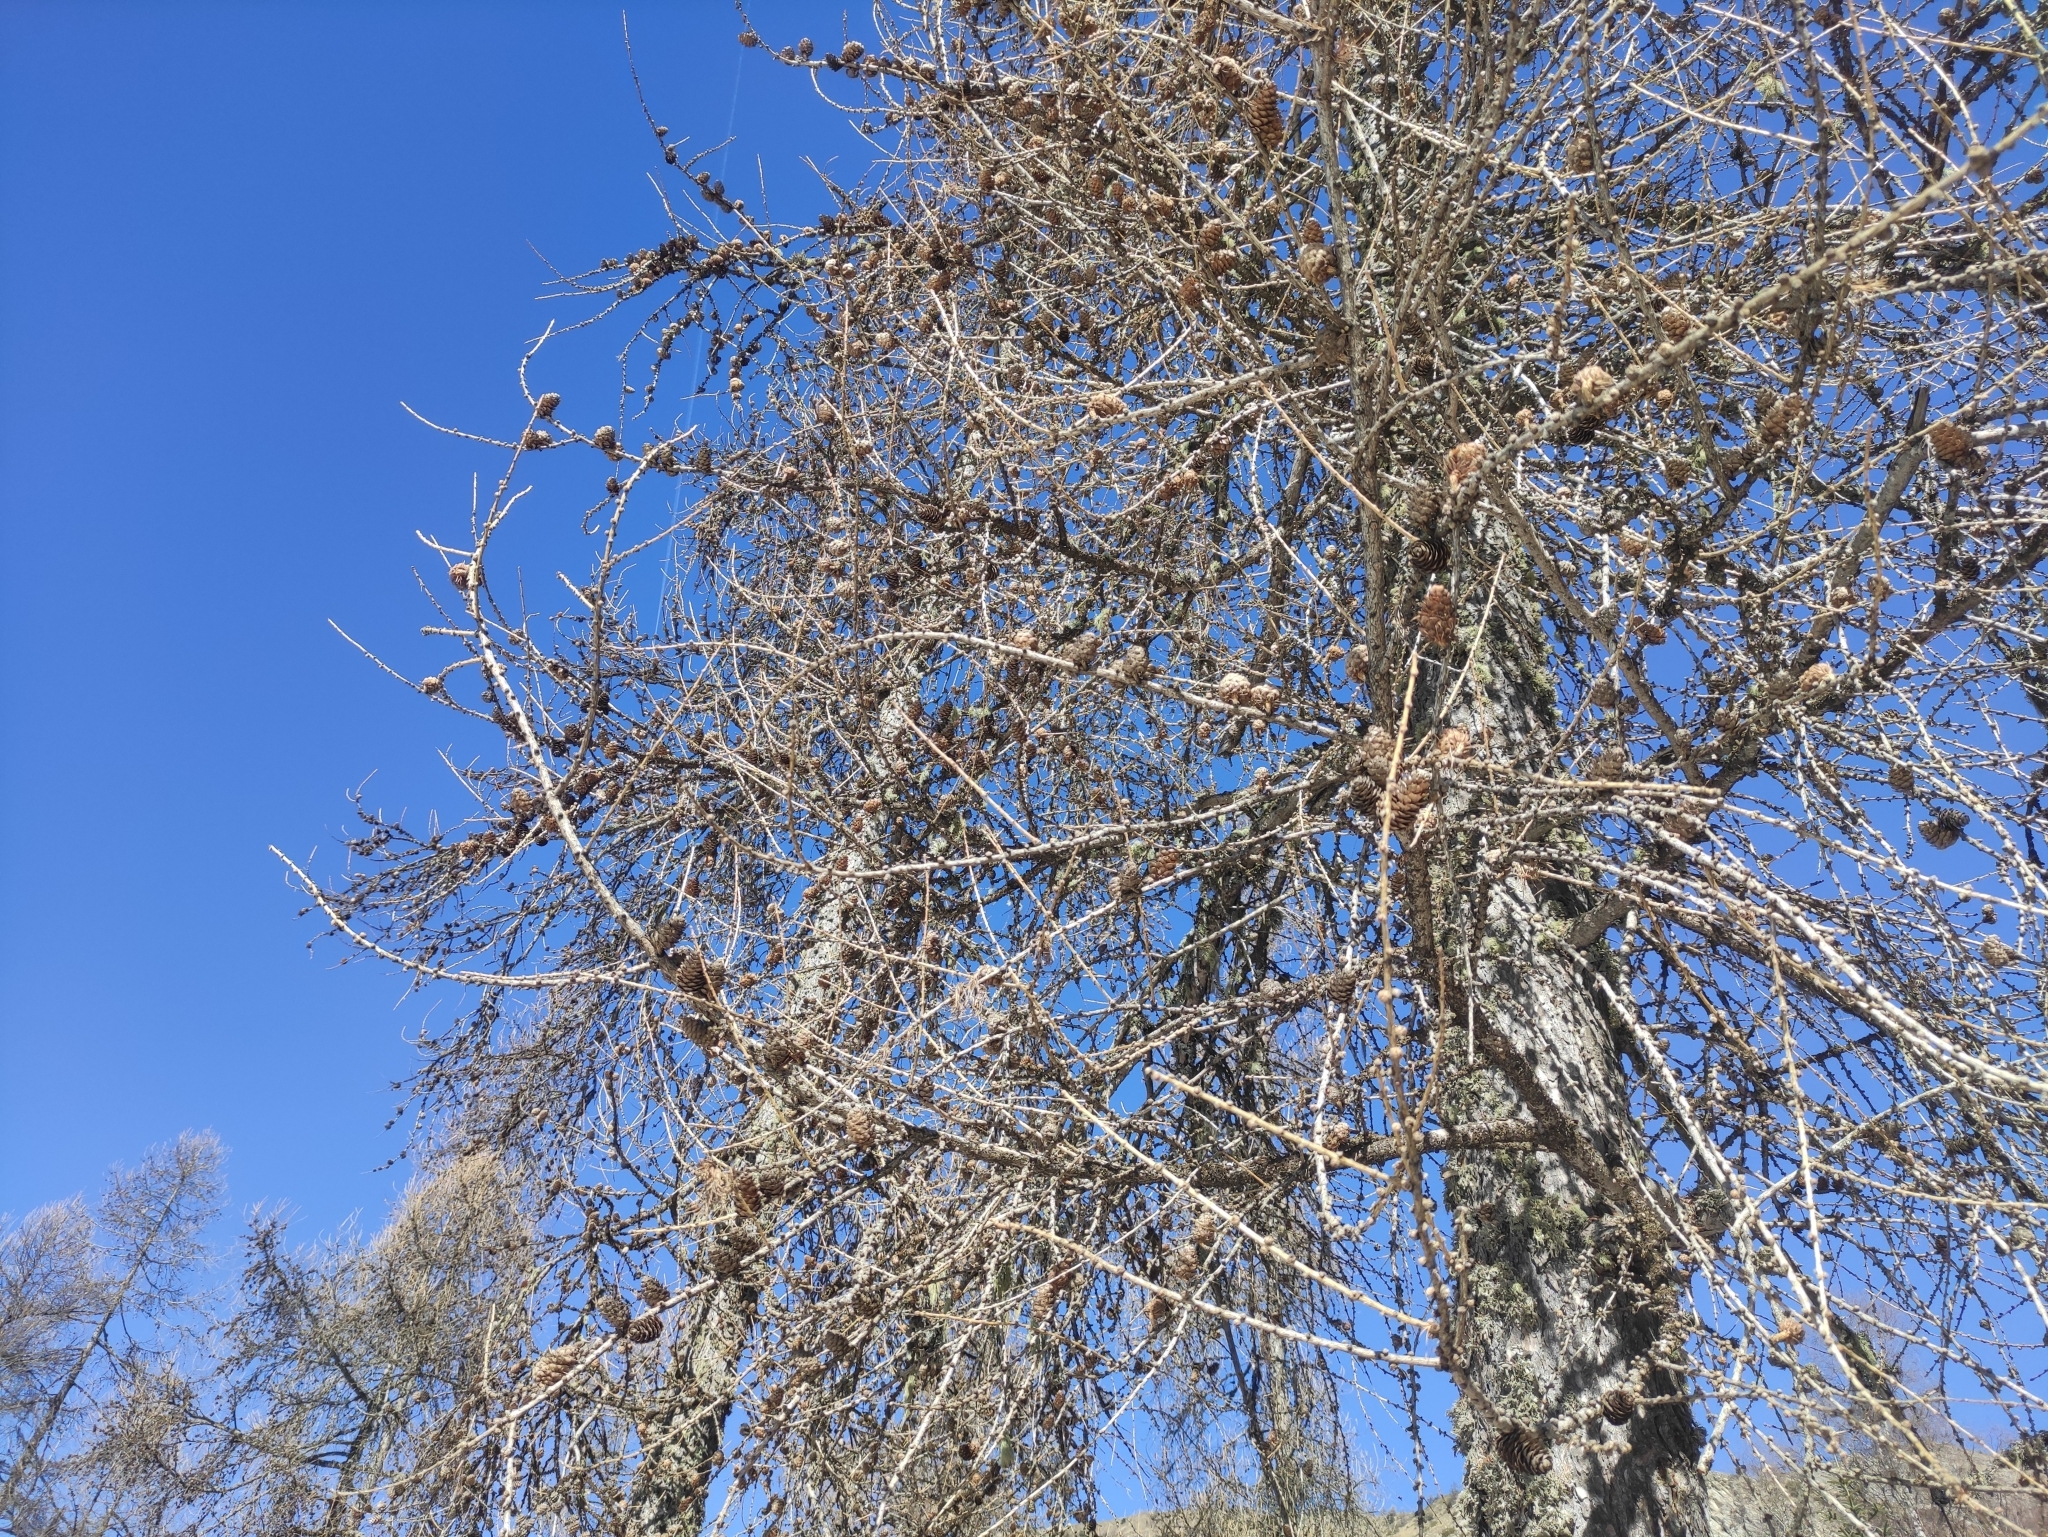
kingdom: Plantae
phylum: Tracheophyta
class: Pinopsida
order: Pinales
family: Pinaceae
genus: Larix
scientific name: Larix decidua
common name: European larch
